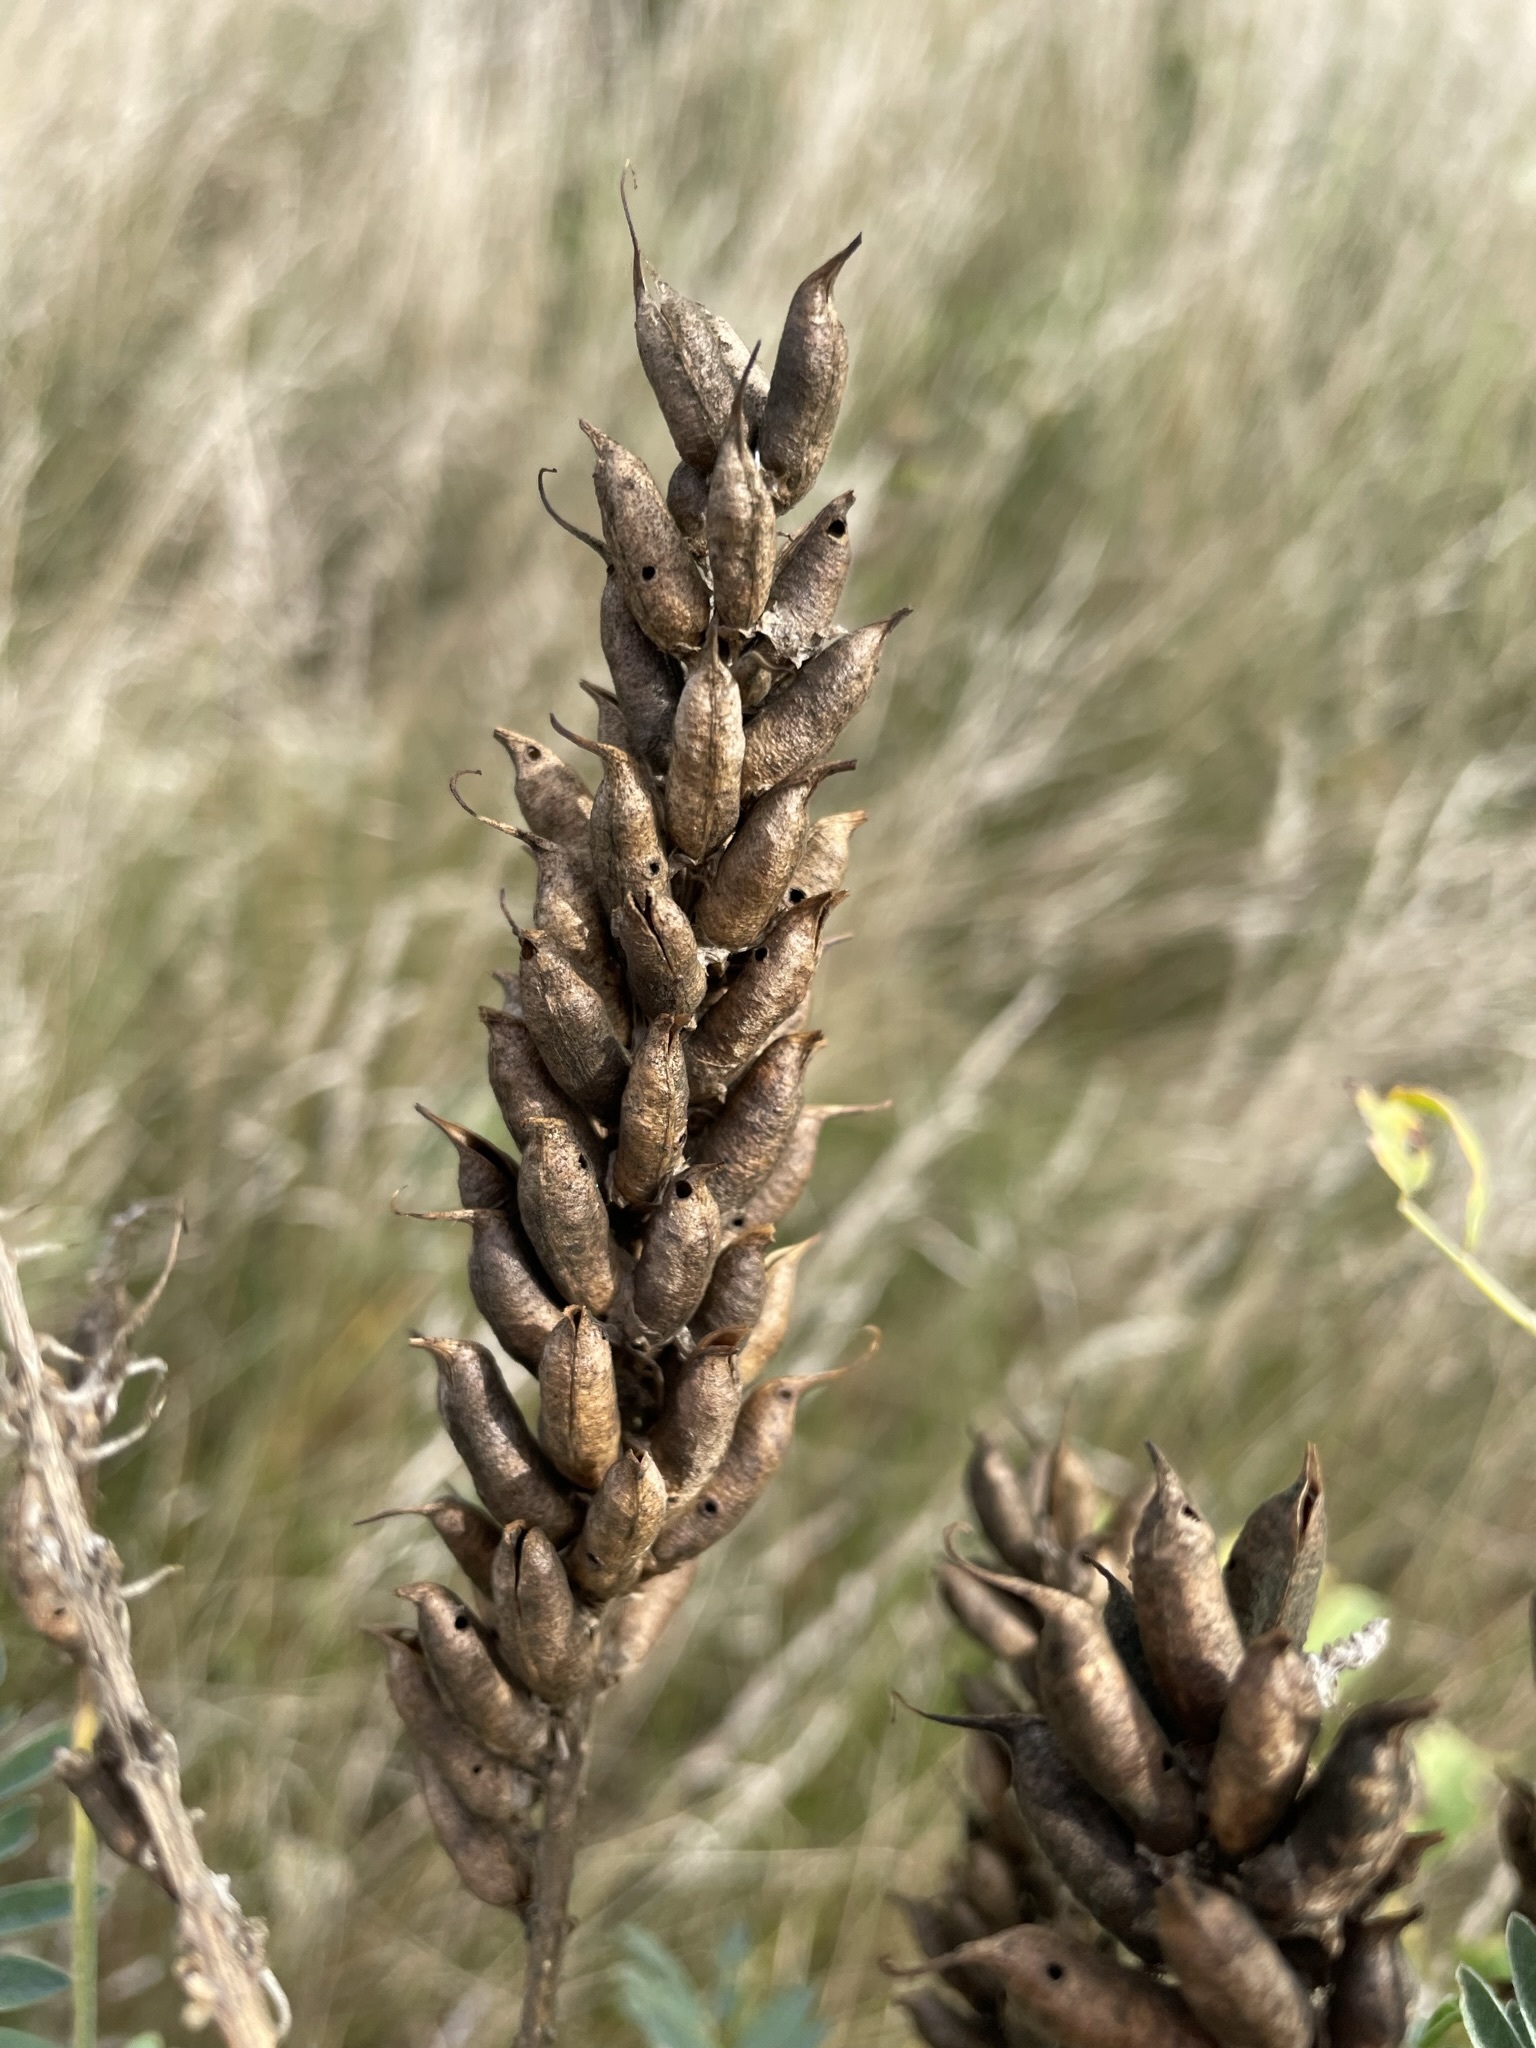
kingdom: Plantae
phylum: Tracheophyta
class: Magnoliopsida
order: Fabales
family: Fabaceae
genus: Astragalus
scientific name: Astragalus canadensis
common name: Canada milk-vetch
